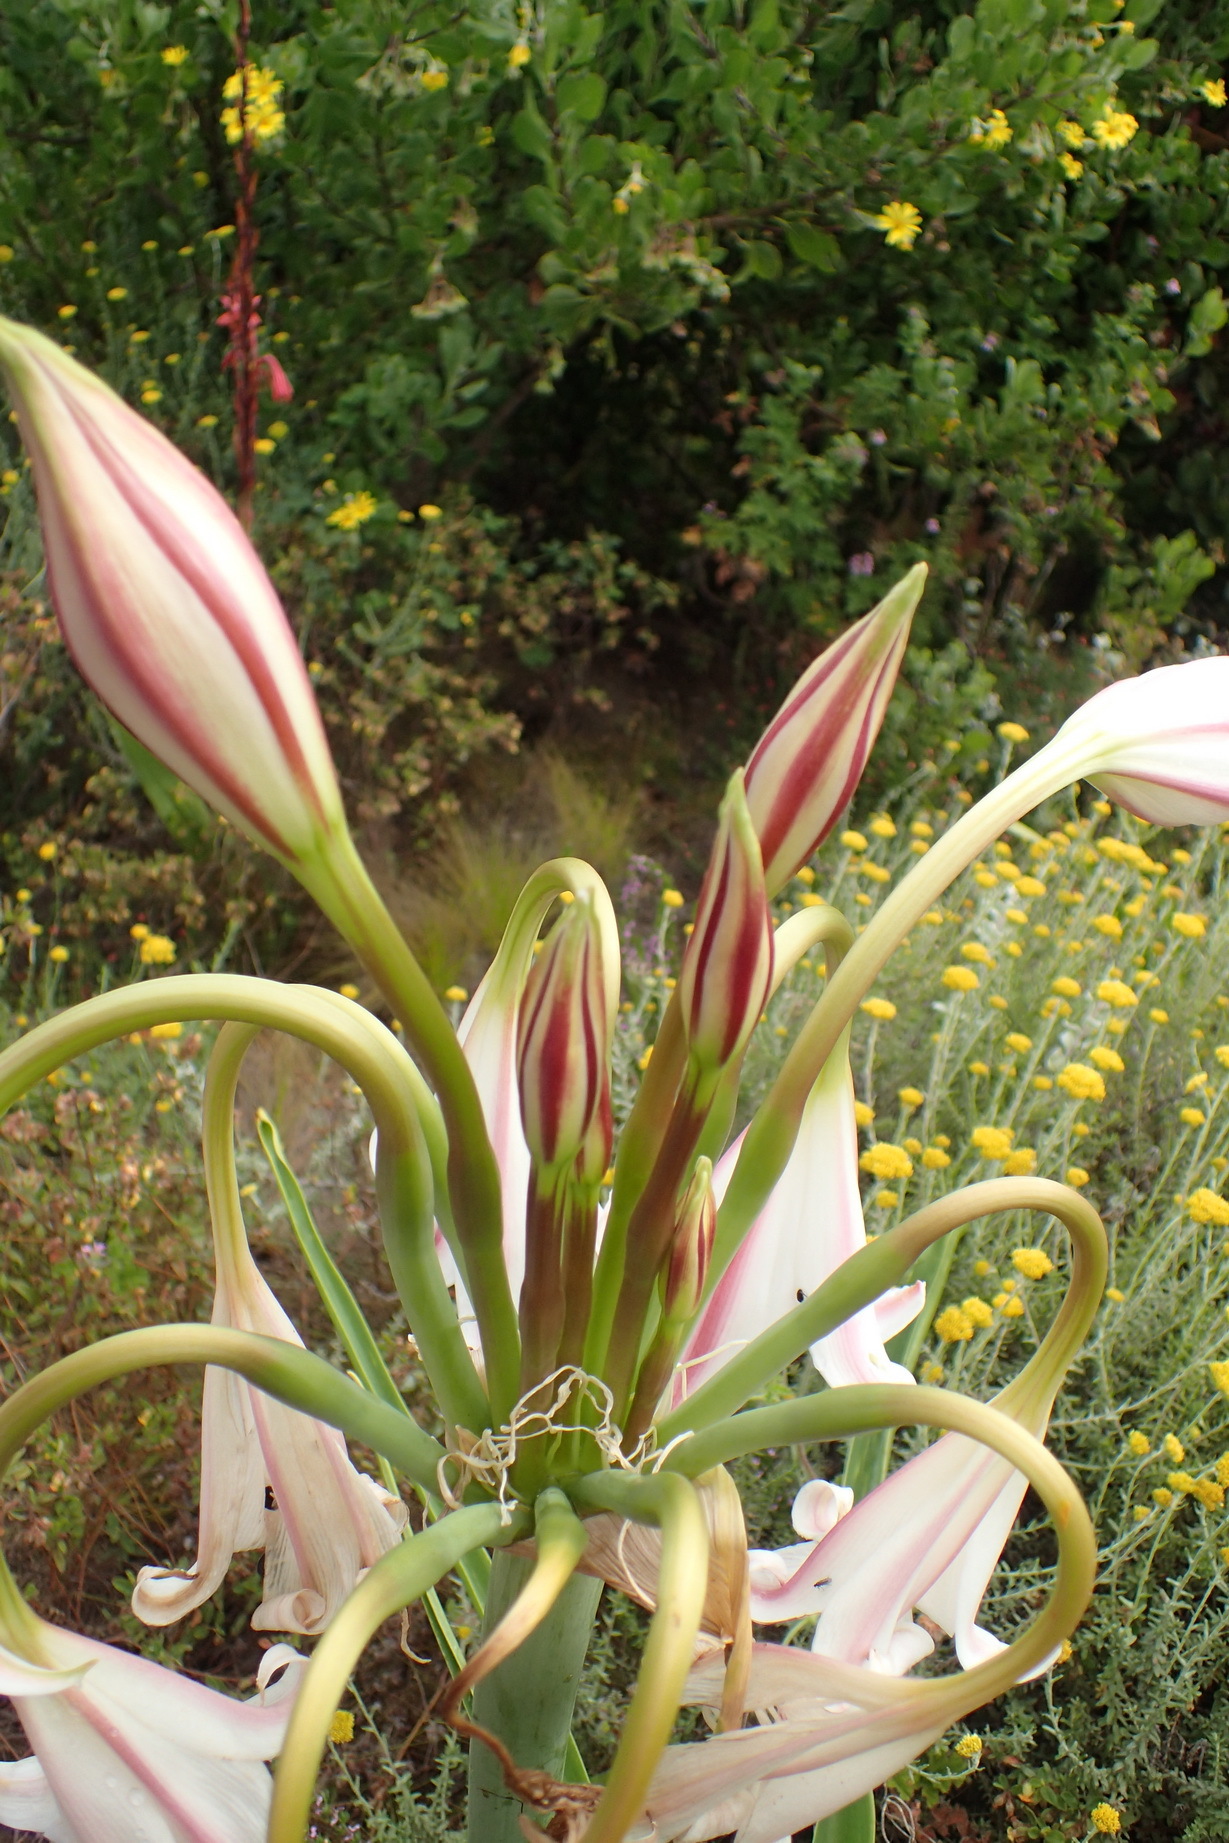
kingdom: Plantae
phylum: Tracheophyta
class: Liliopsida
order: Asparagales
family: Amaryllidaceae
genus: Crinum
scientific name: Crinum macowanii
